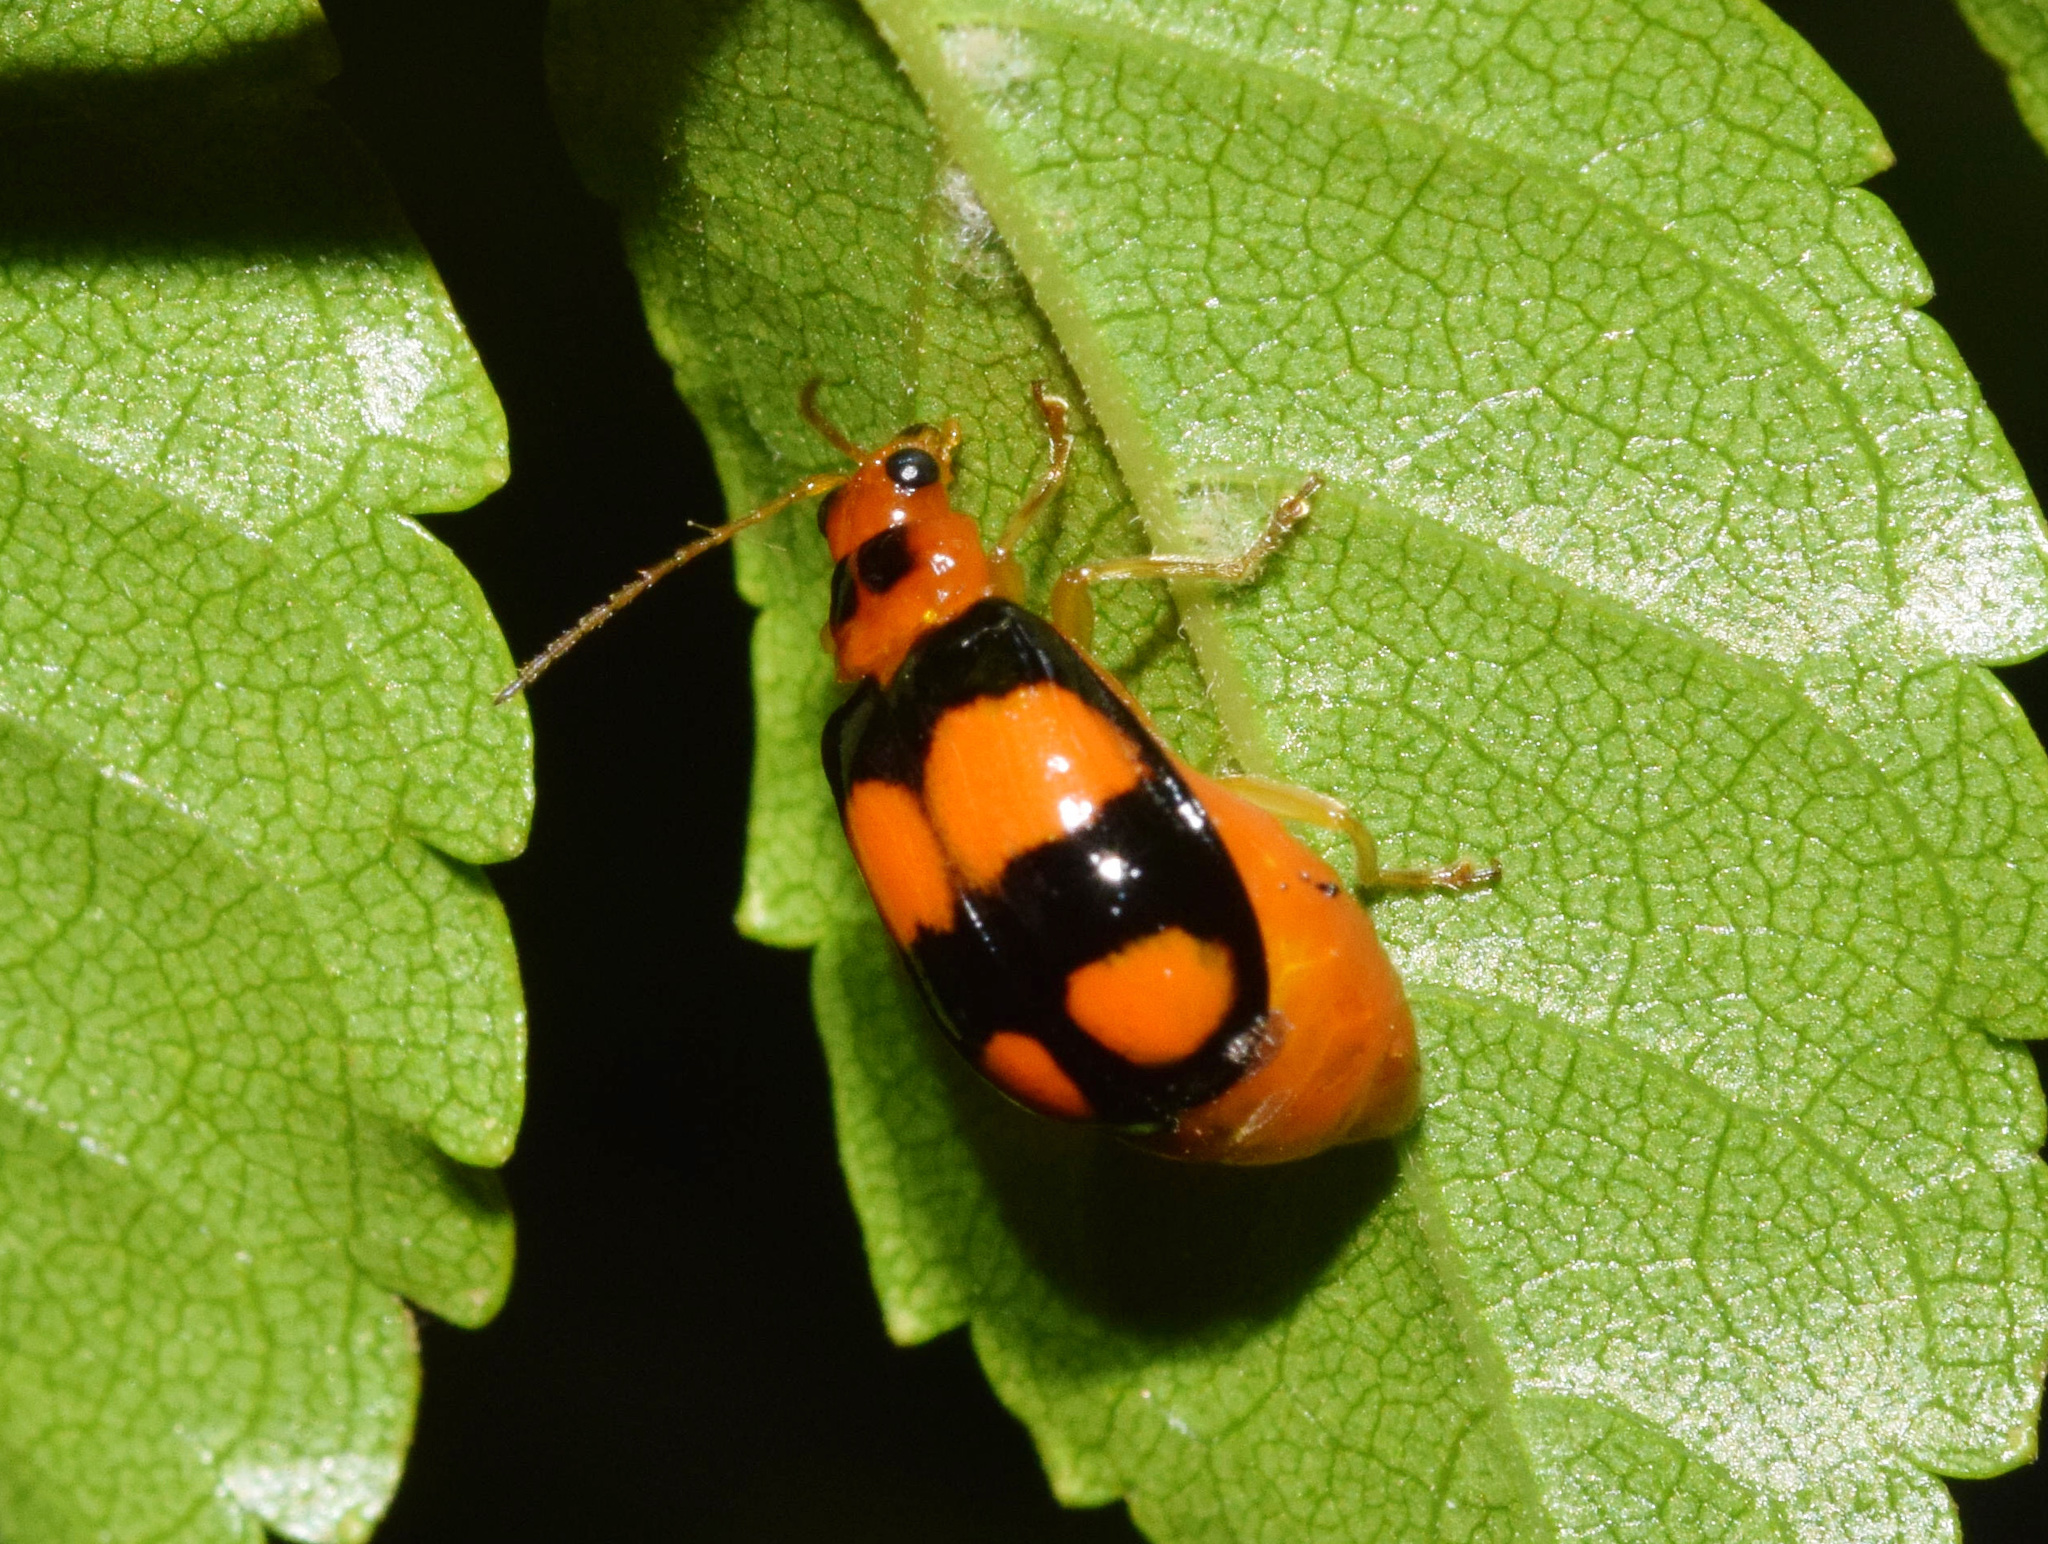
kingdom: Animalia
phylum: Arthropoda
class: Insecta
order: Coleoptera
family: Chrysomelidae
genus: Diacantha
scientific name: Diacantha
